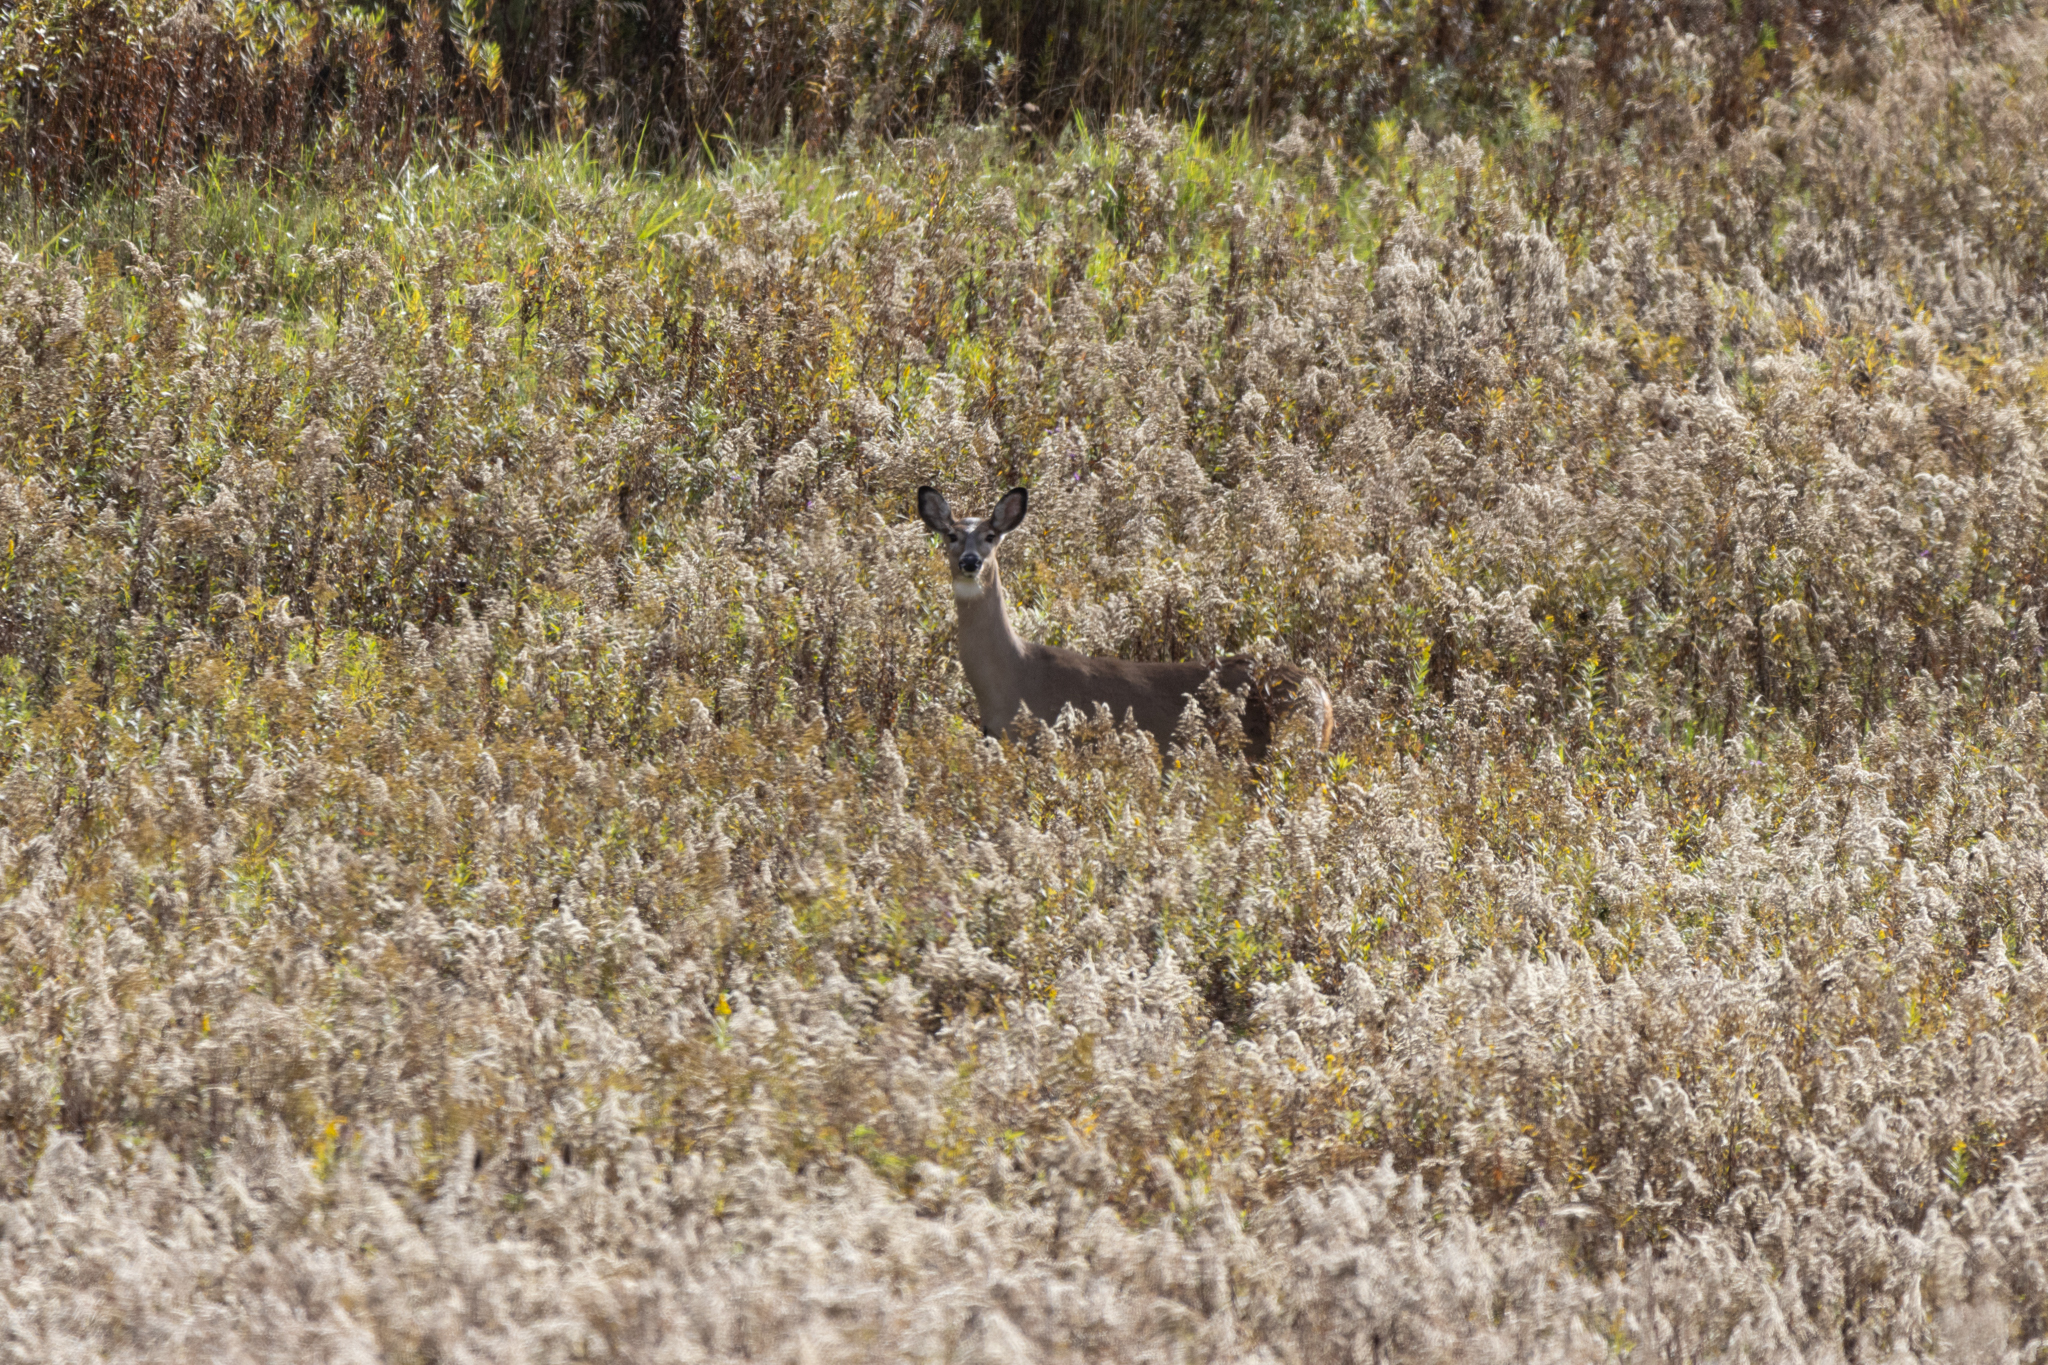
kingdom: Animalia
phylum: Chordata
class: Mammalia
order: Artiodactyla
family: Cervidae
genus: Odocoileus
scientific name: Odocoileus virginianus
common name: White-tailed deer
